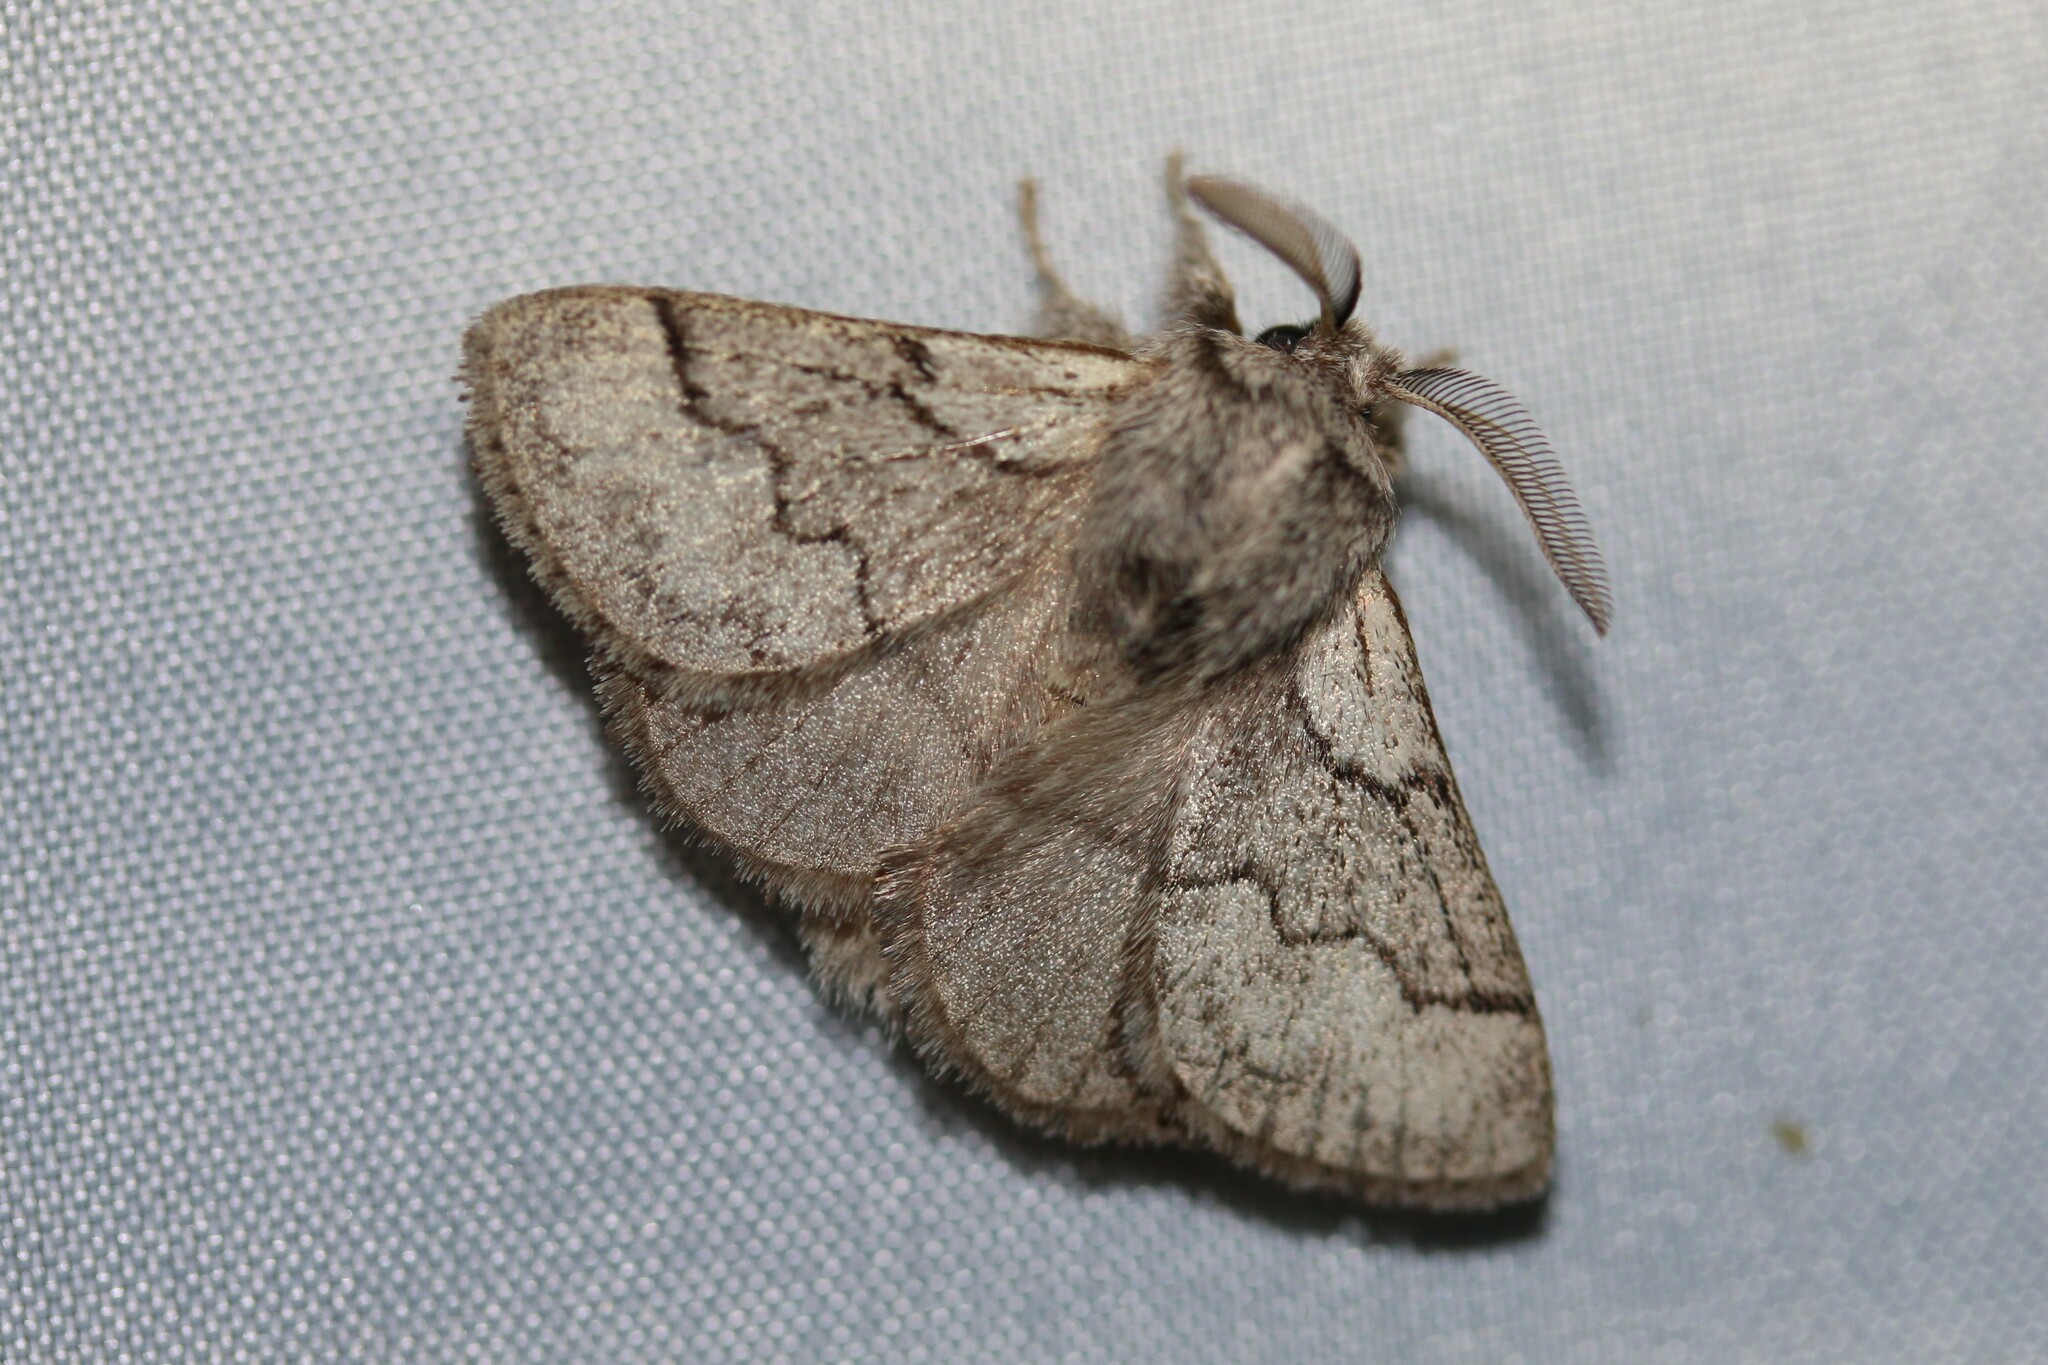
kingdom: Animalia
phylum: Arthropoda
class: Insecta
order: Lepidoptera
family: Lasiocampidae
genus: Trichiura
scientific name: Trichiura crataegi
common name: Pale eggar
